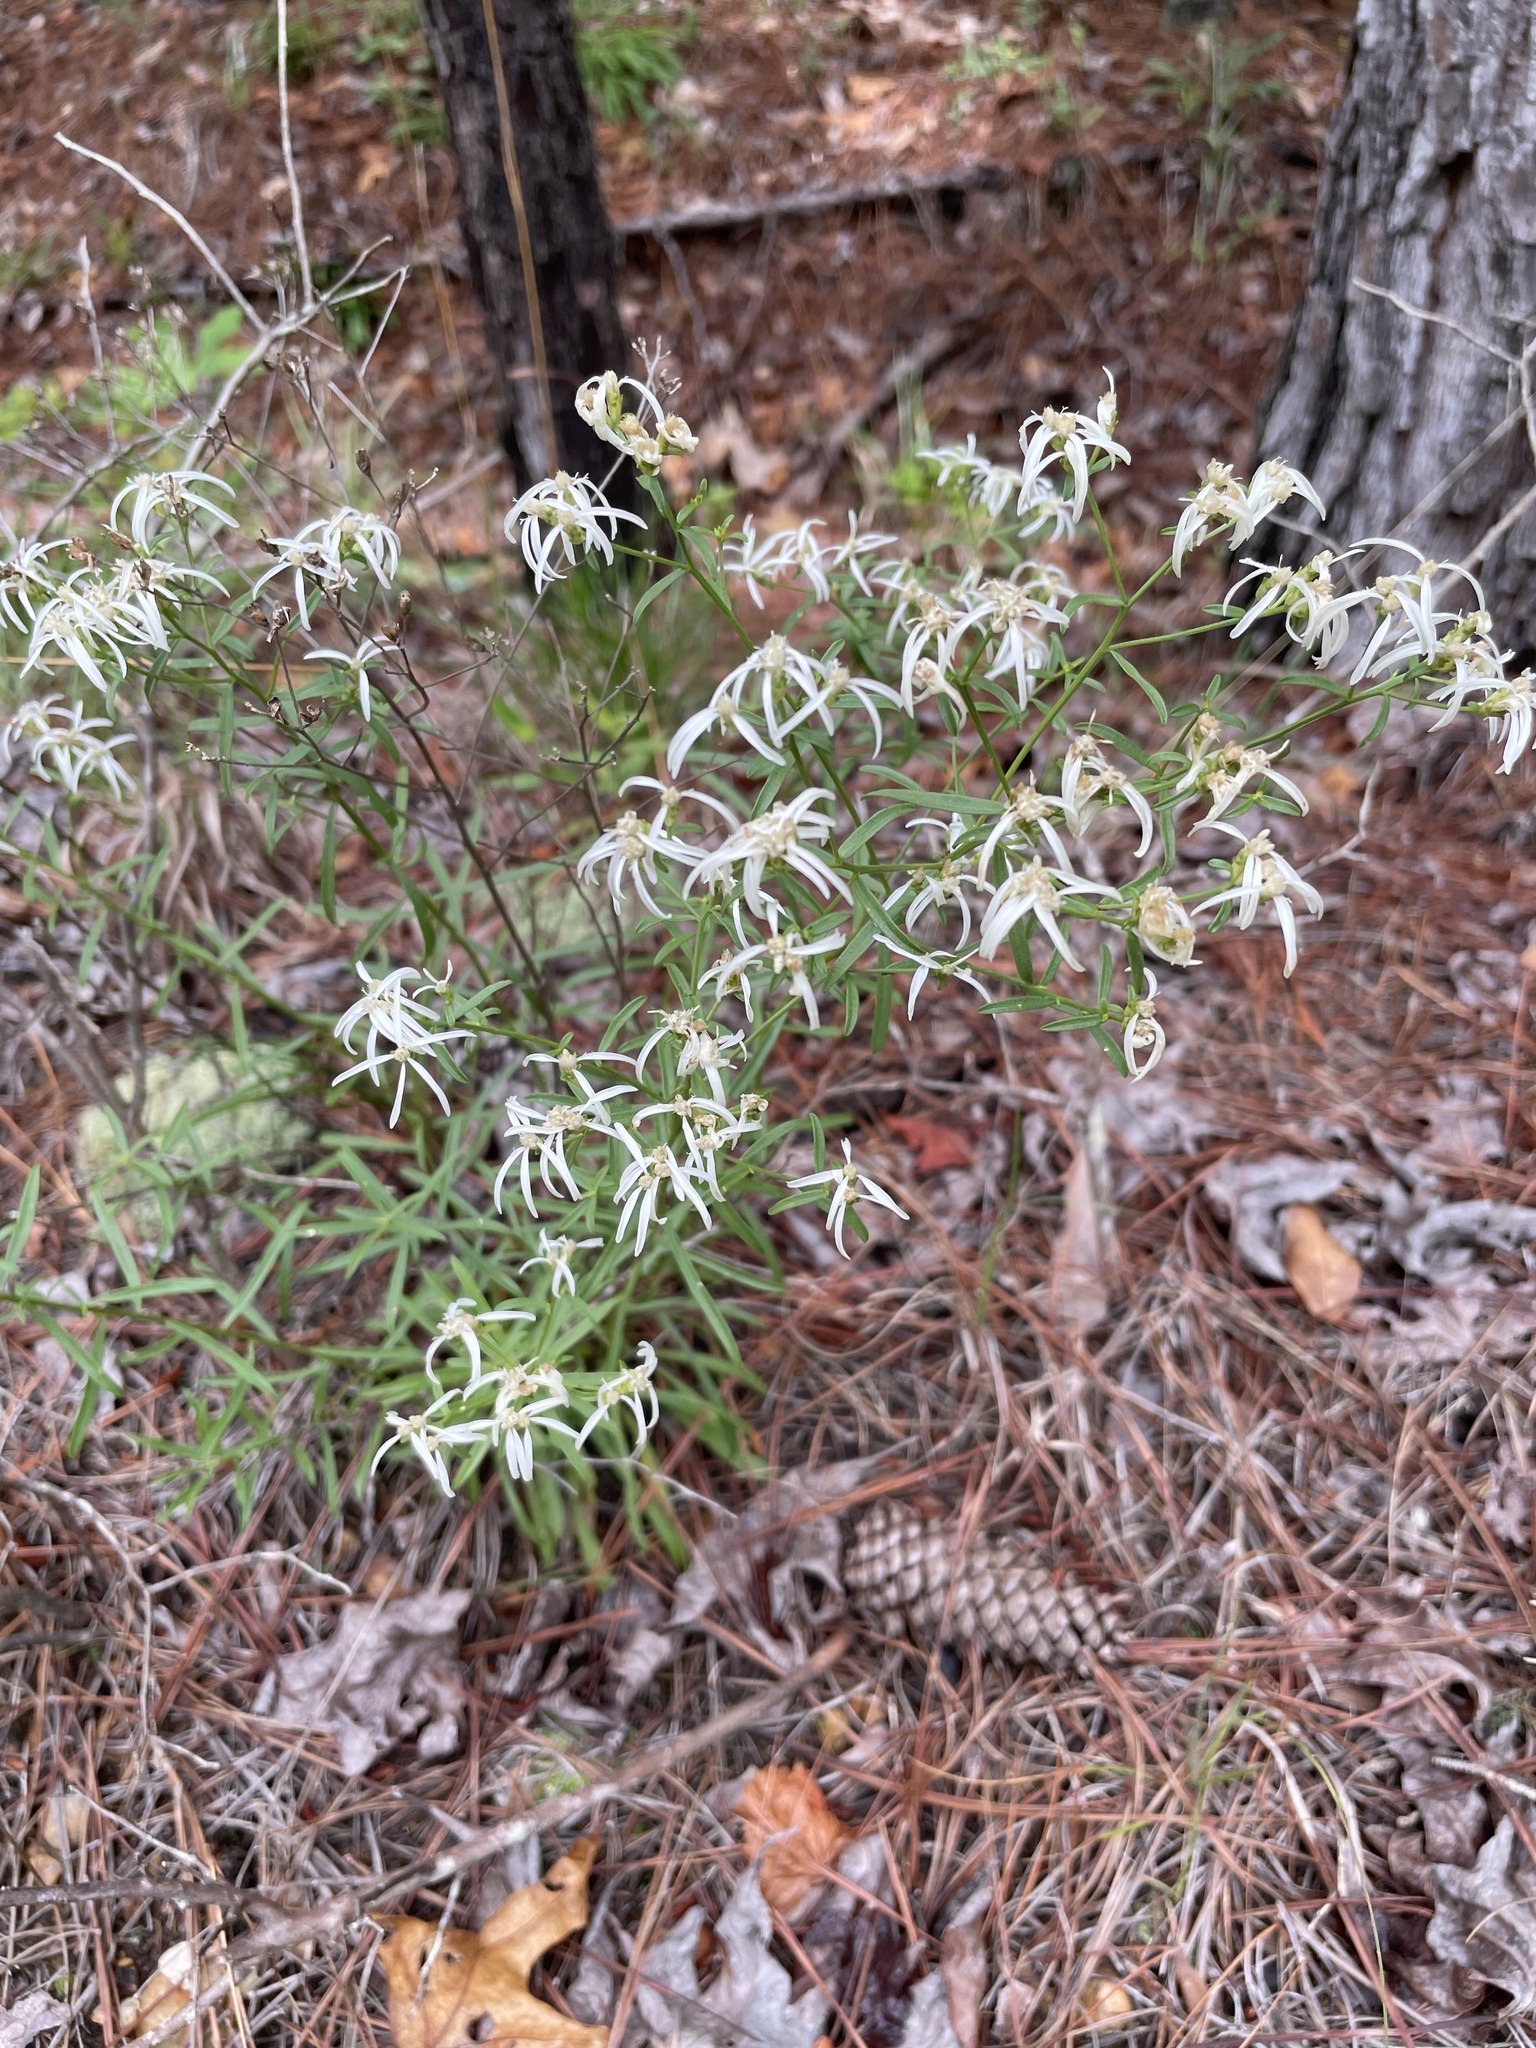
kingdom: Plantae
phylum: Tracheophyta
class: Magnoliopsida
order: Asterales
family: Asteraceae
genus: Sericocarpus
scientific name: Sericocarpus linifolius
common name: Narrow-leaf aster
